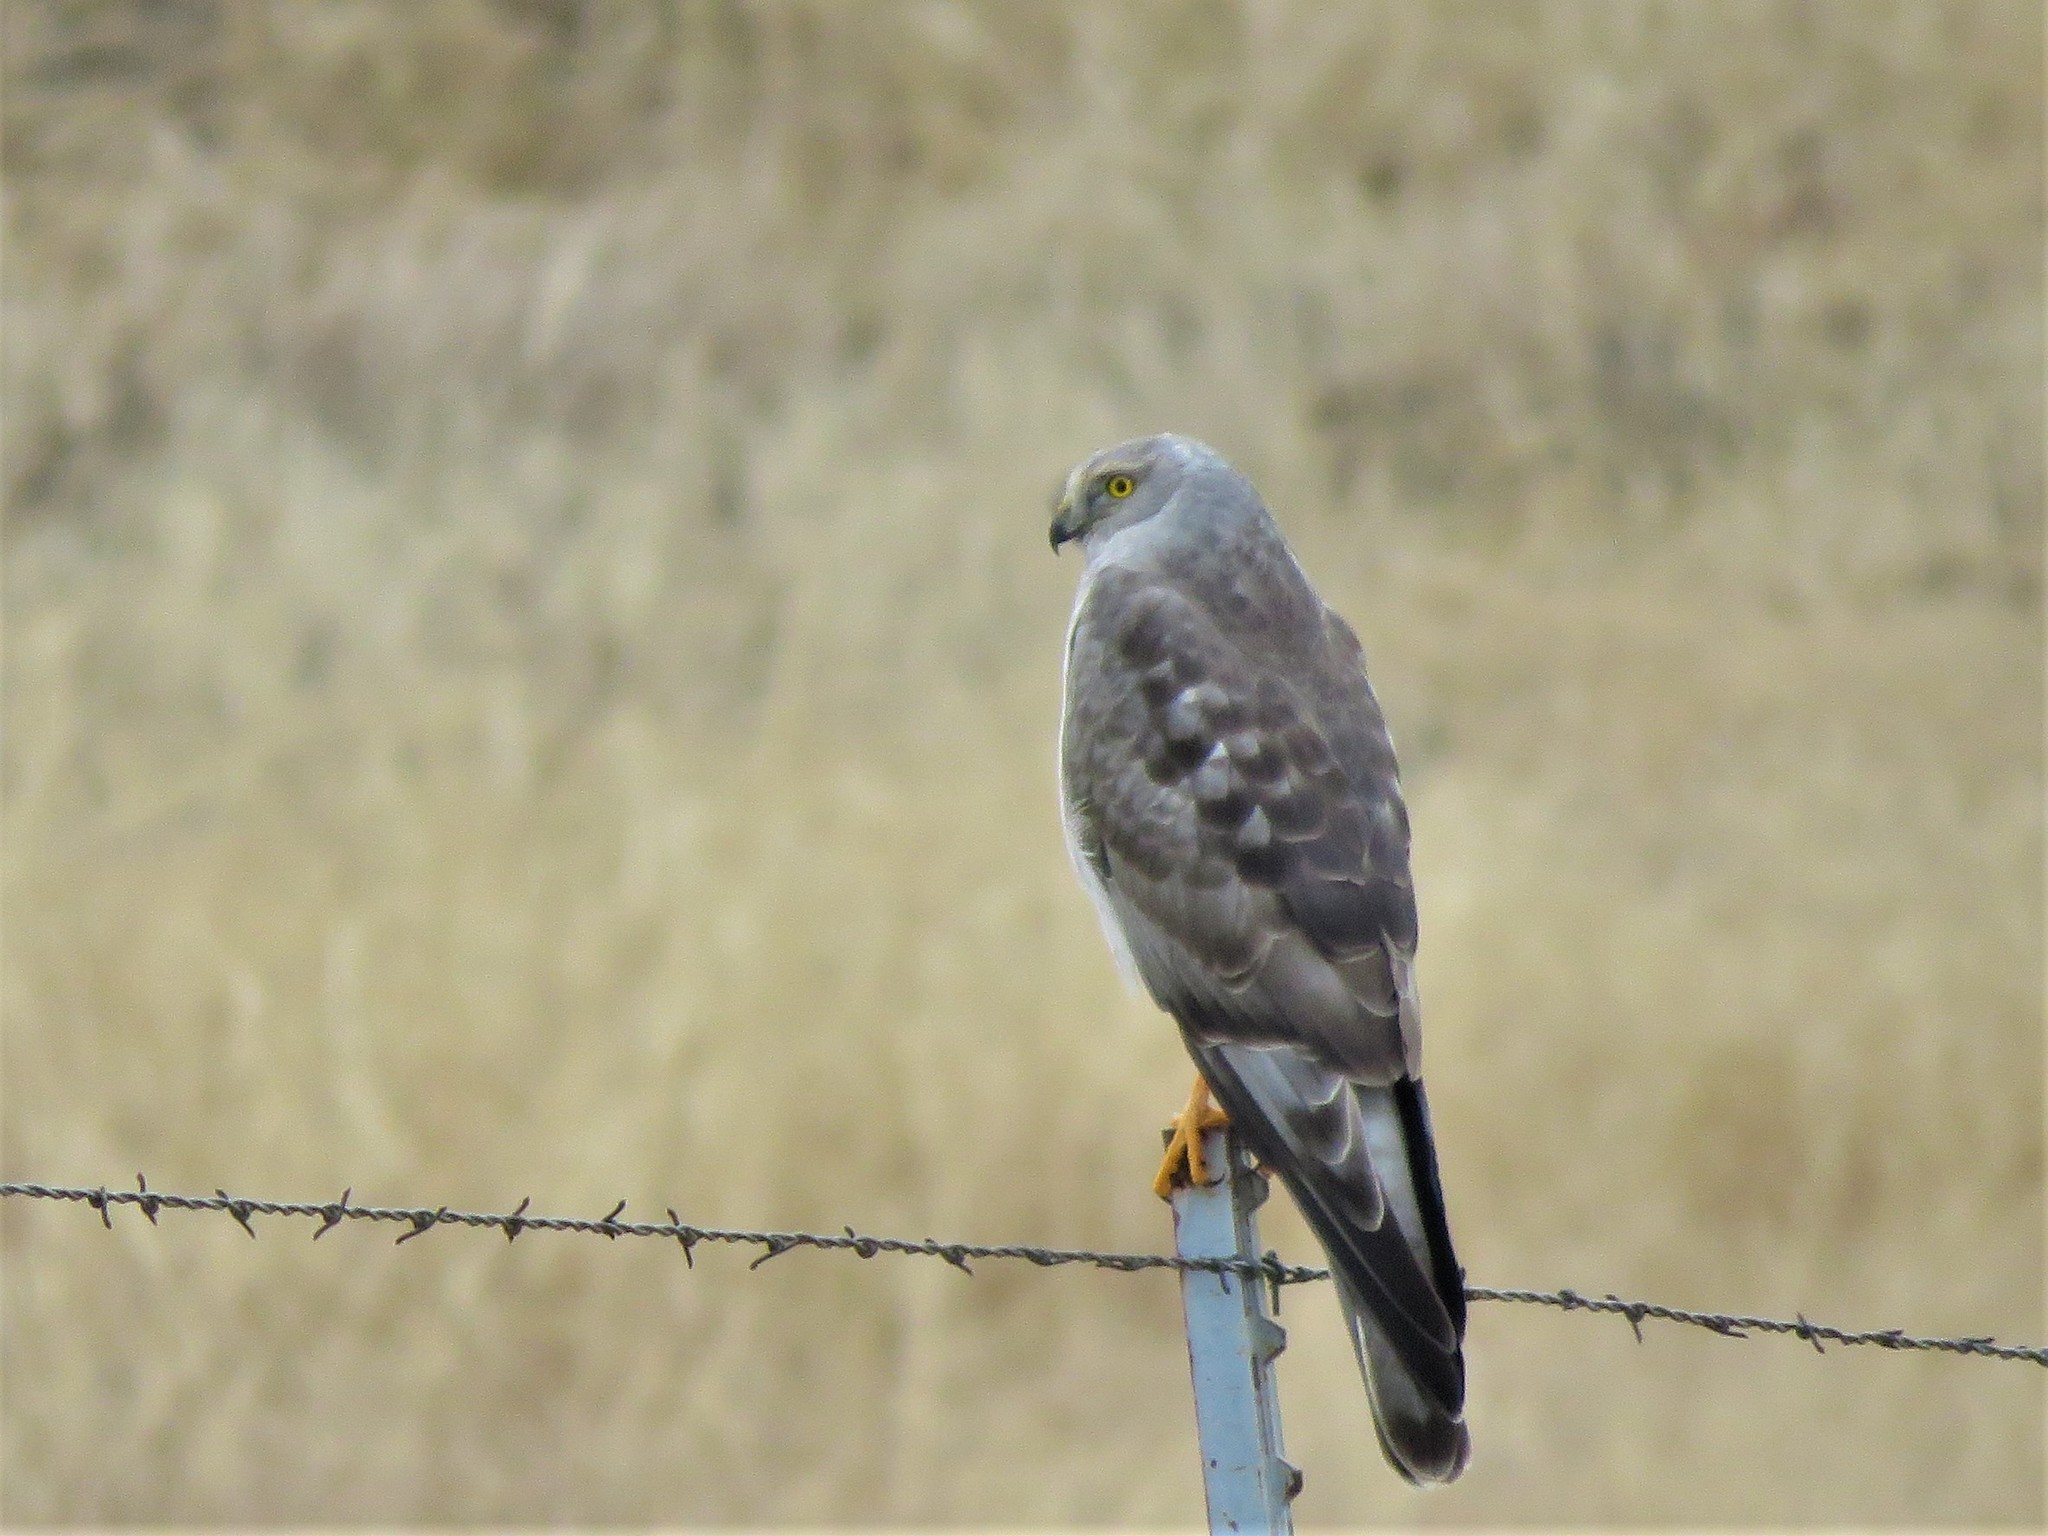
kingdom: Animalia
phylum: Chordata
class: Aves
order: Accipitriformes
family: Accipitridae
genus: Circus
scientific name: Circus cyaneus
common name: Hen harrier
